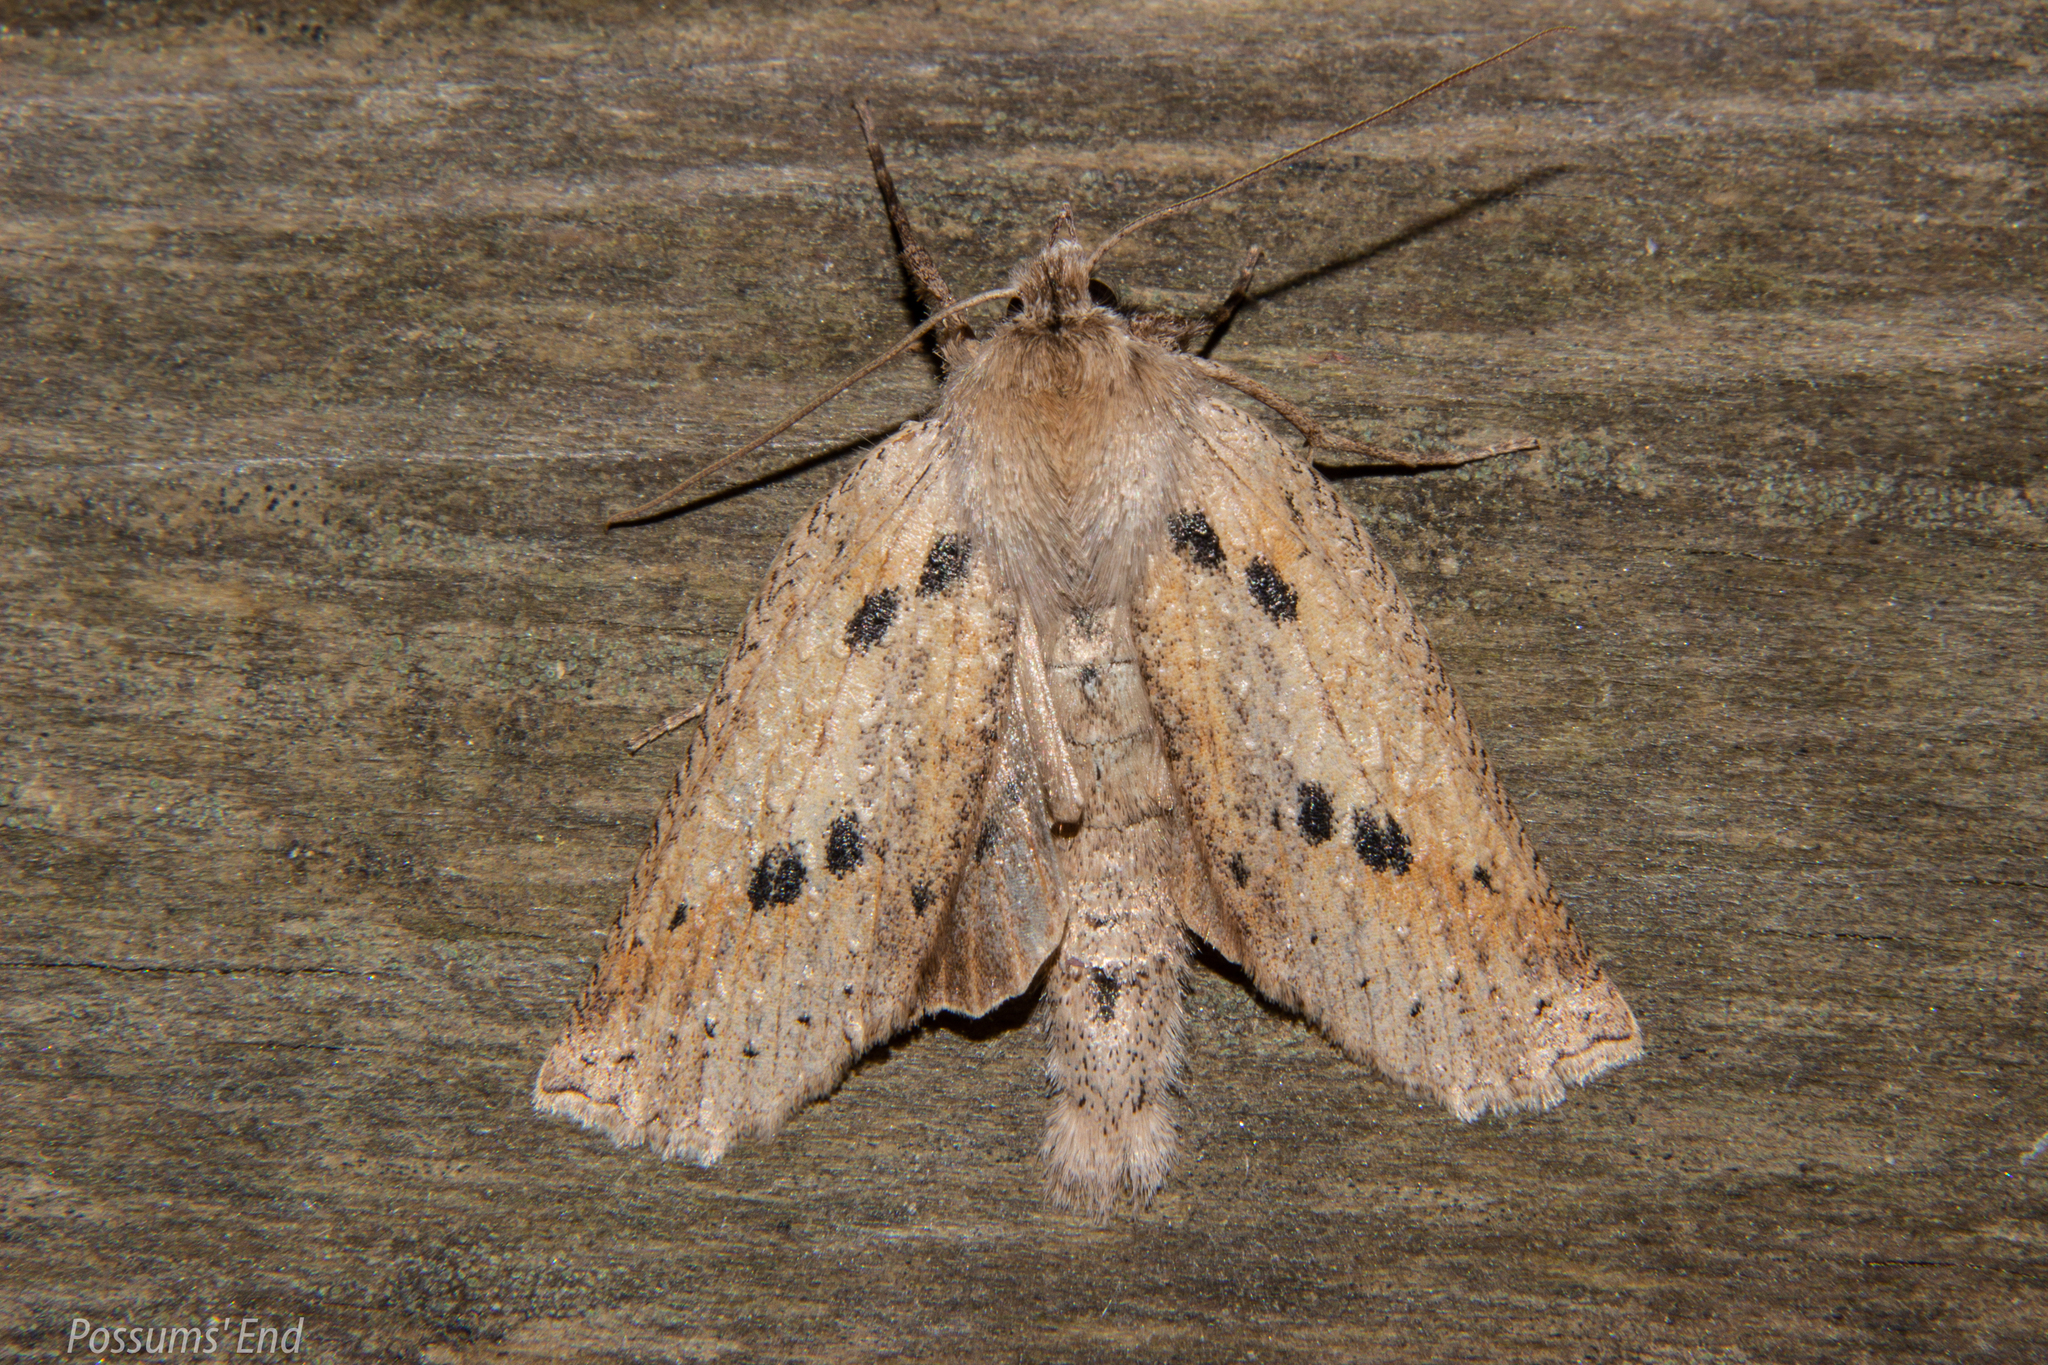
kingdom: Animalia
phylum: Arthropoda
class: Insecta
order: Lepidoptera
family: Geometridae
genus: Declana
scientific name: Declana leptomera
